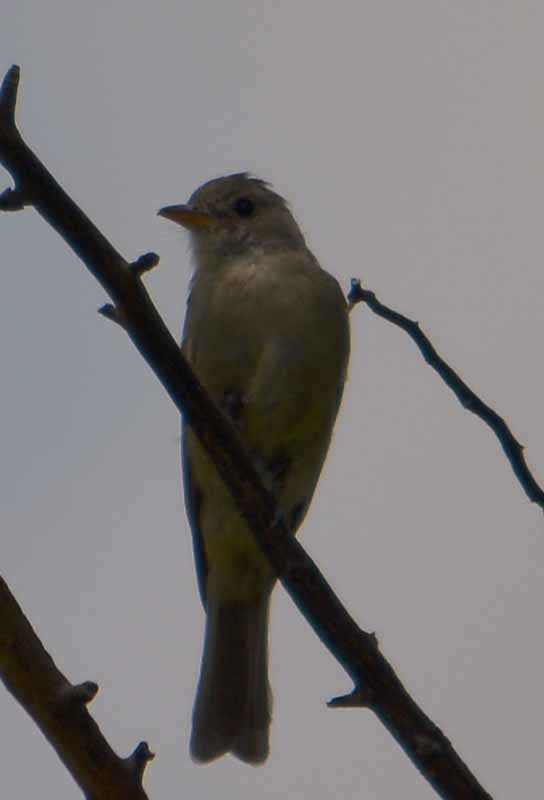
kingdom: Animalia
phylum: Chordata
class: Aves
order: Passeriformes
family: Tyrannidae
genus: Contopus
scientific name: Contopus pertinax
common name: Greater pewee
